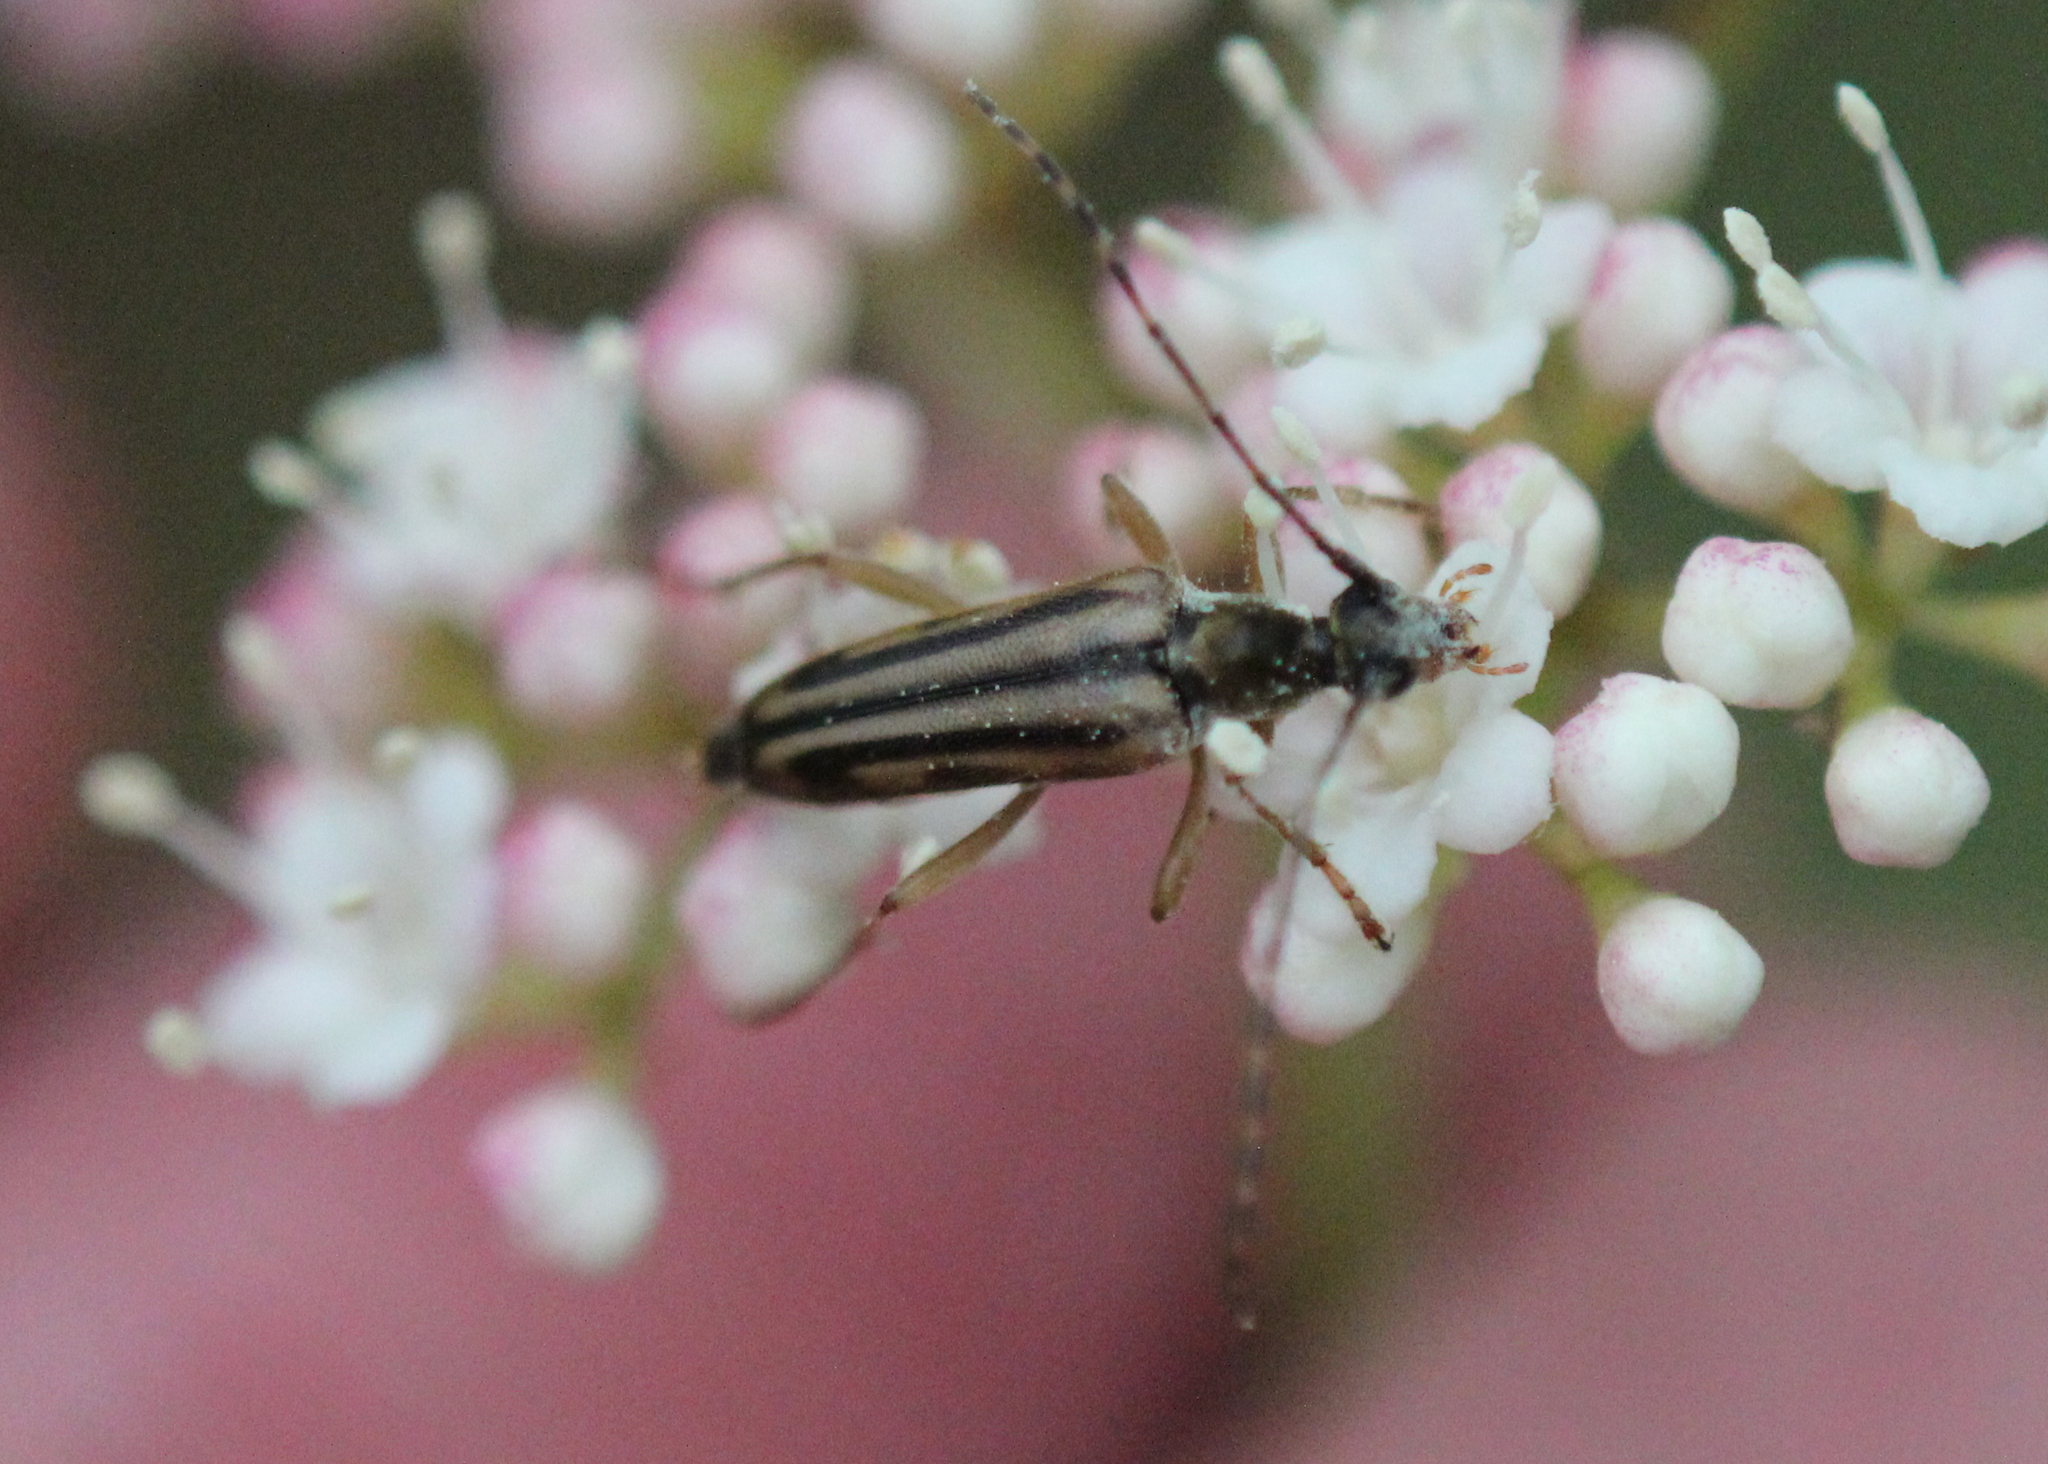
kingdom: Animalia
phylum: Arthropoda
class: Insecta
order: Coleoptera
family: Cerambycidae
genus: Analeptura
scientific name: Analeptura lineola
